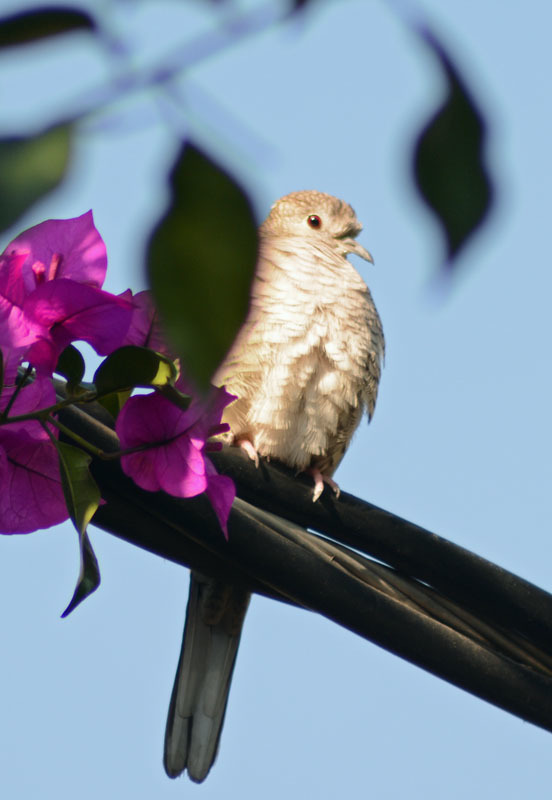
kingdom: Animalia
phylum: Chordata
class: Aves
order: Columbiformes
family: Columbidae
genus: Columbina
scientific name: Columbina inca
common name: Inca dove
